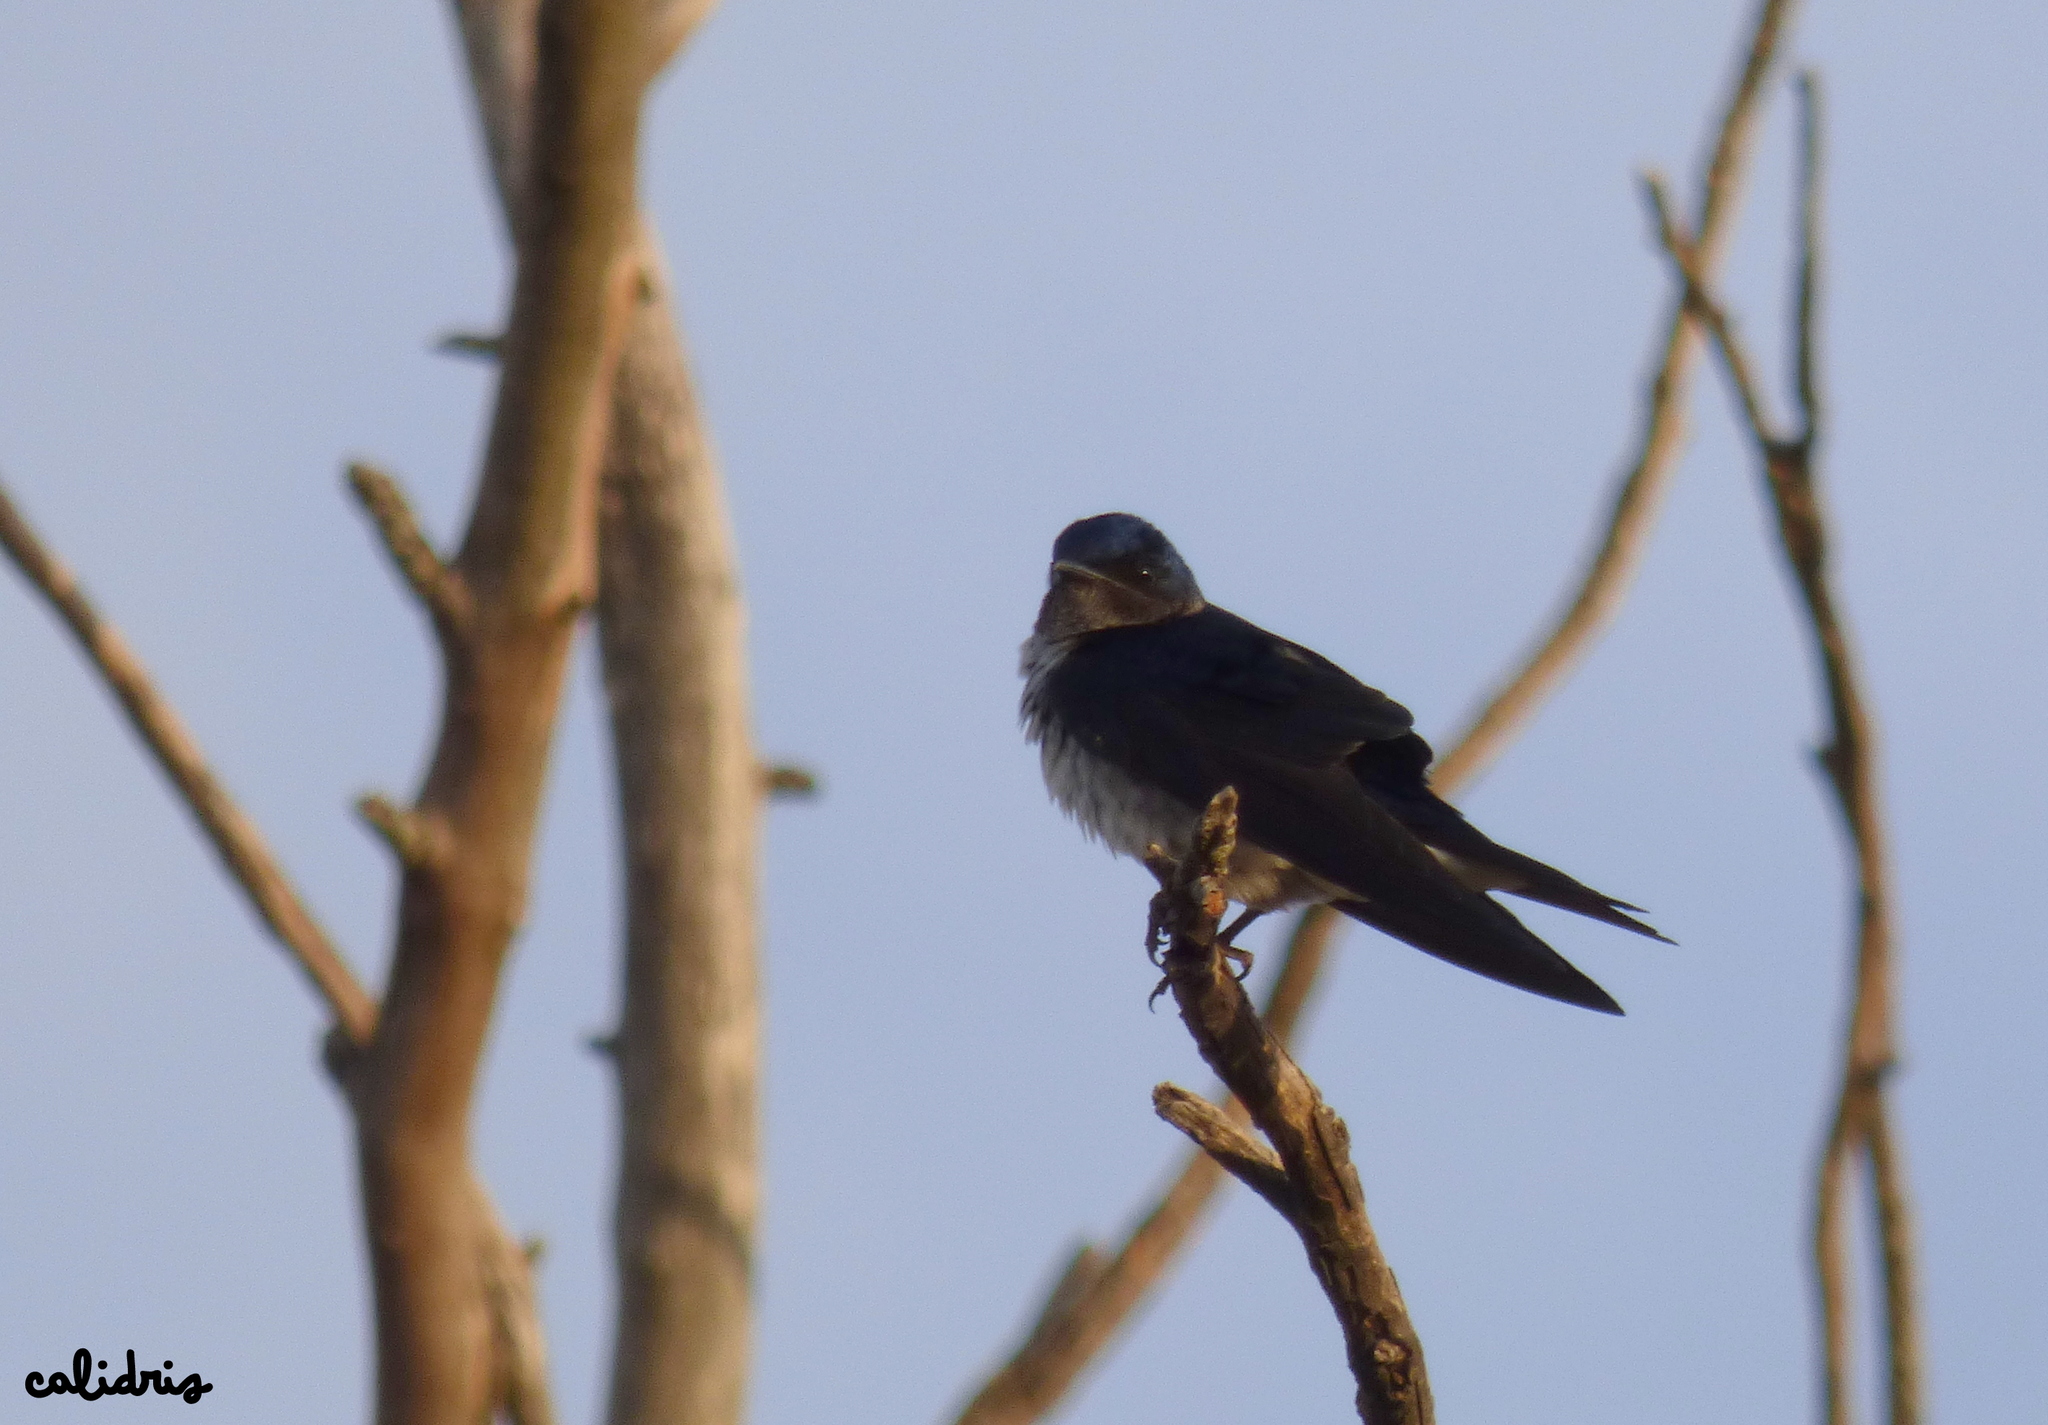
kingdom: Animalia
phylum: Chordata
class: Aves
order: Passeriformes
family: Hirundinidae
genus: Progne
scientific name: Progne chalybea
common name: Grey-breasted martin
